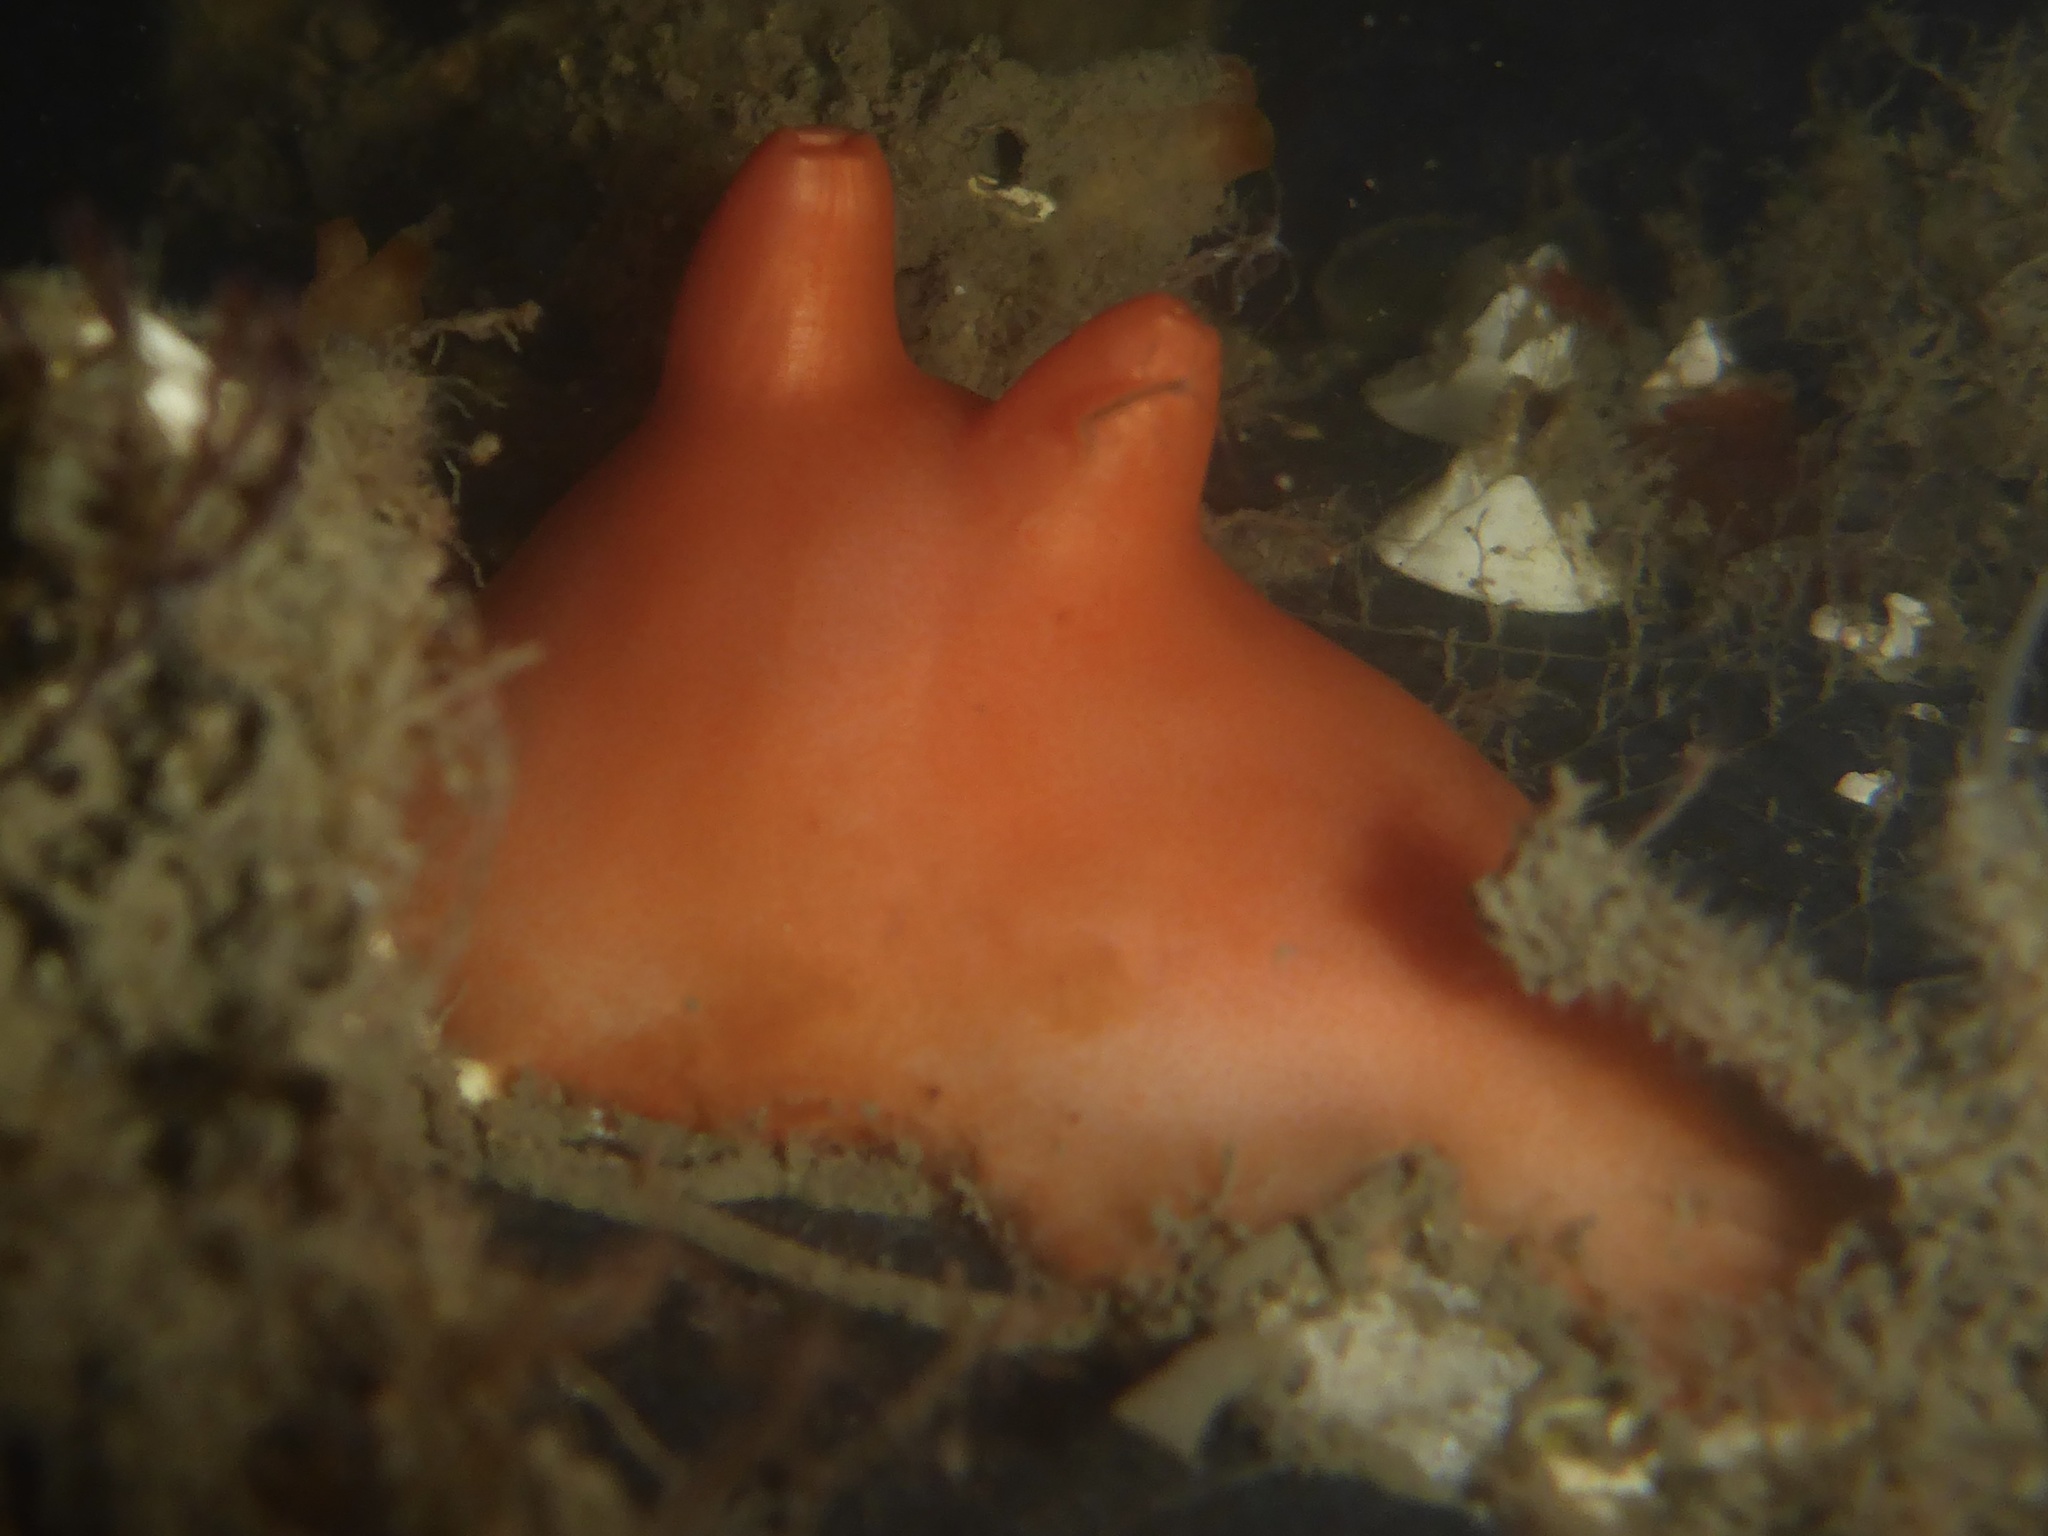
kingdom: Animalia
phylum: Chordata
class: Ascidiacea
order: Stolidobranchia
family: Styelidae
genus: Cnemidocarpa
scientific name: Cnemidocarpa finmarkiensis
